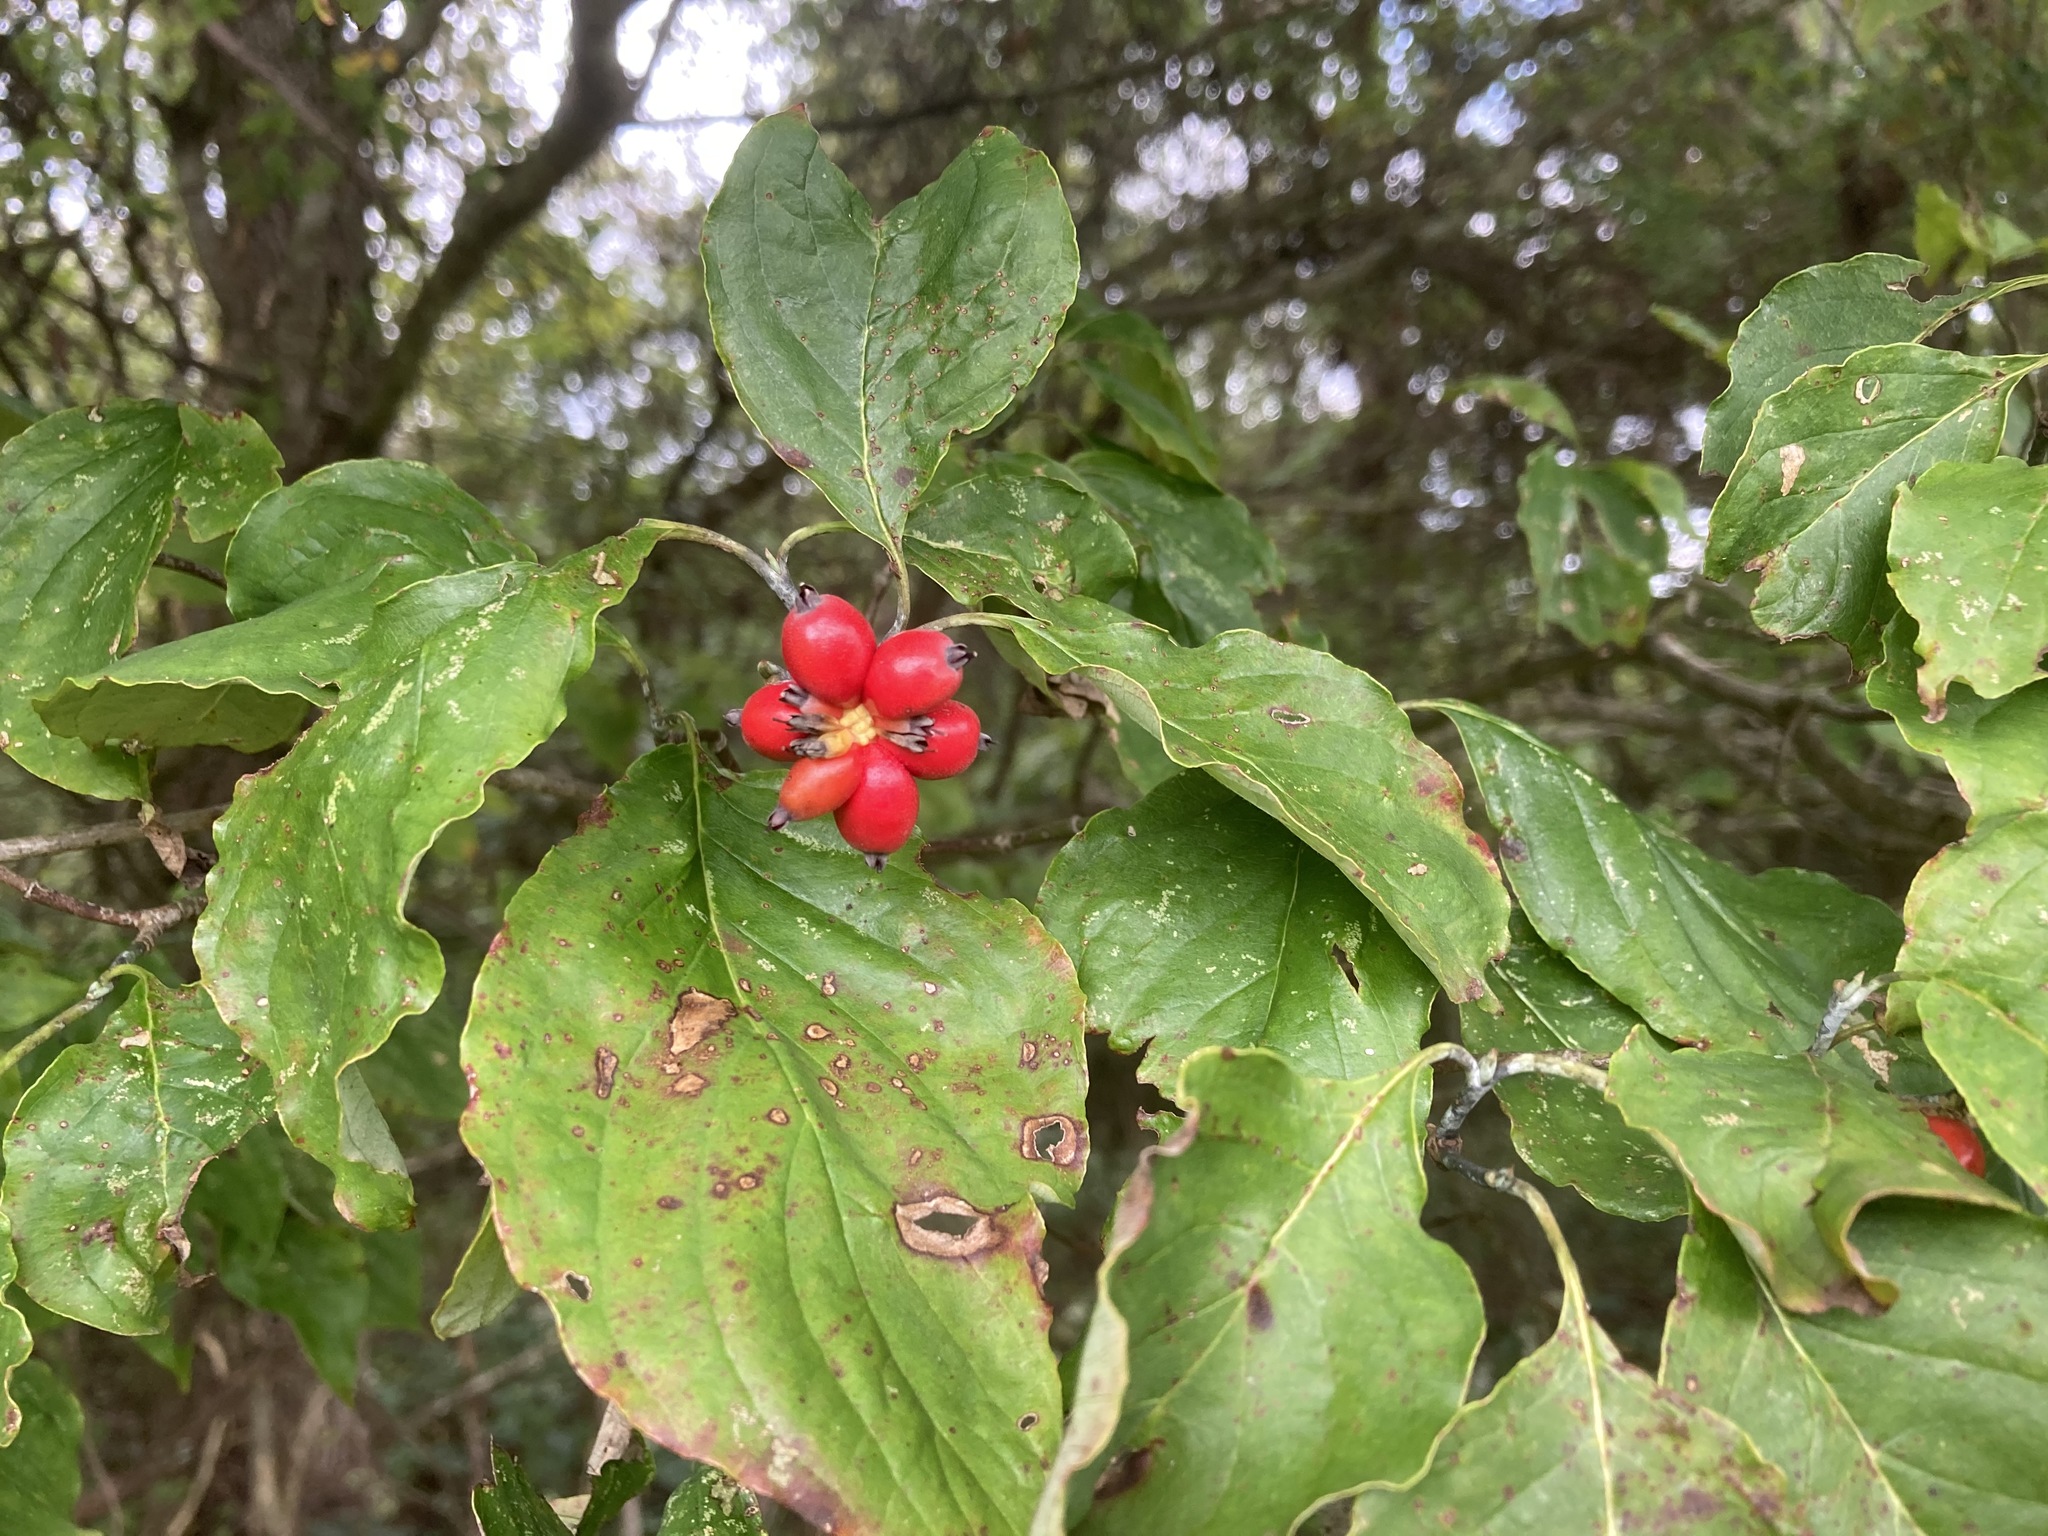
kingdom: Plantae
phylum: Tracheophyta
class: Magnoliopsida
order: Cornales
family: Cornaceae
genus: Cornus
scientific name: Cornus florida
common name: Flowering dogwood
